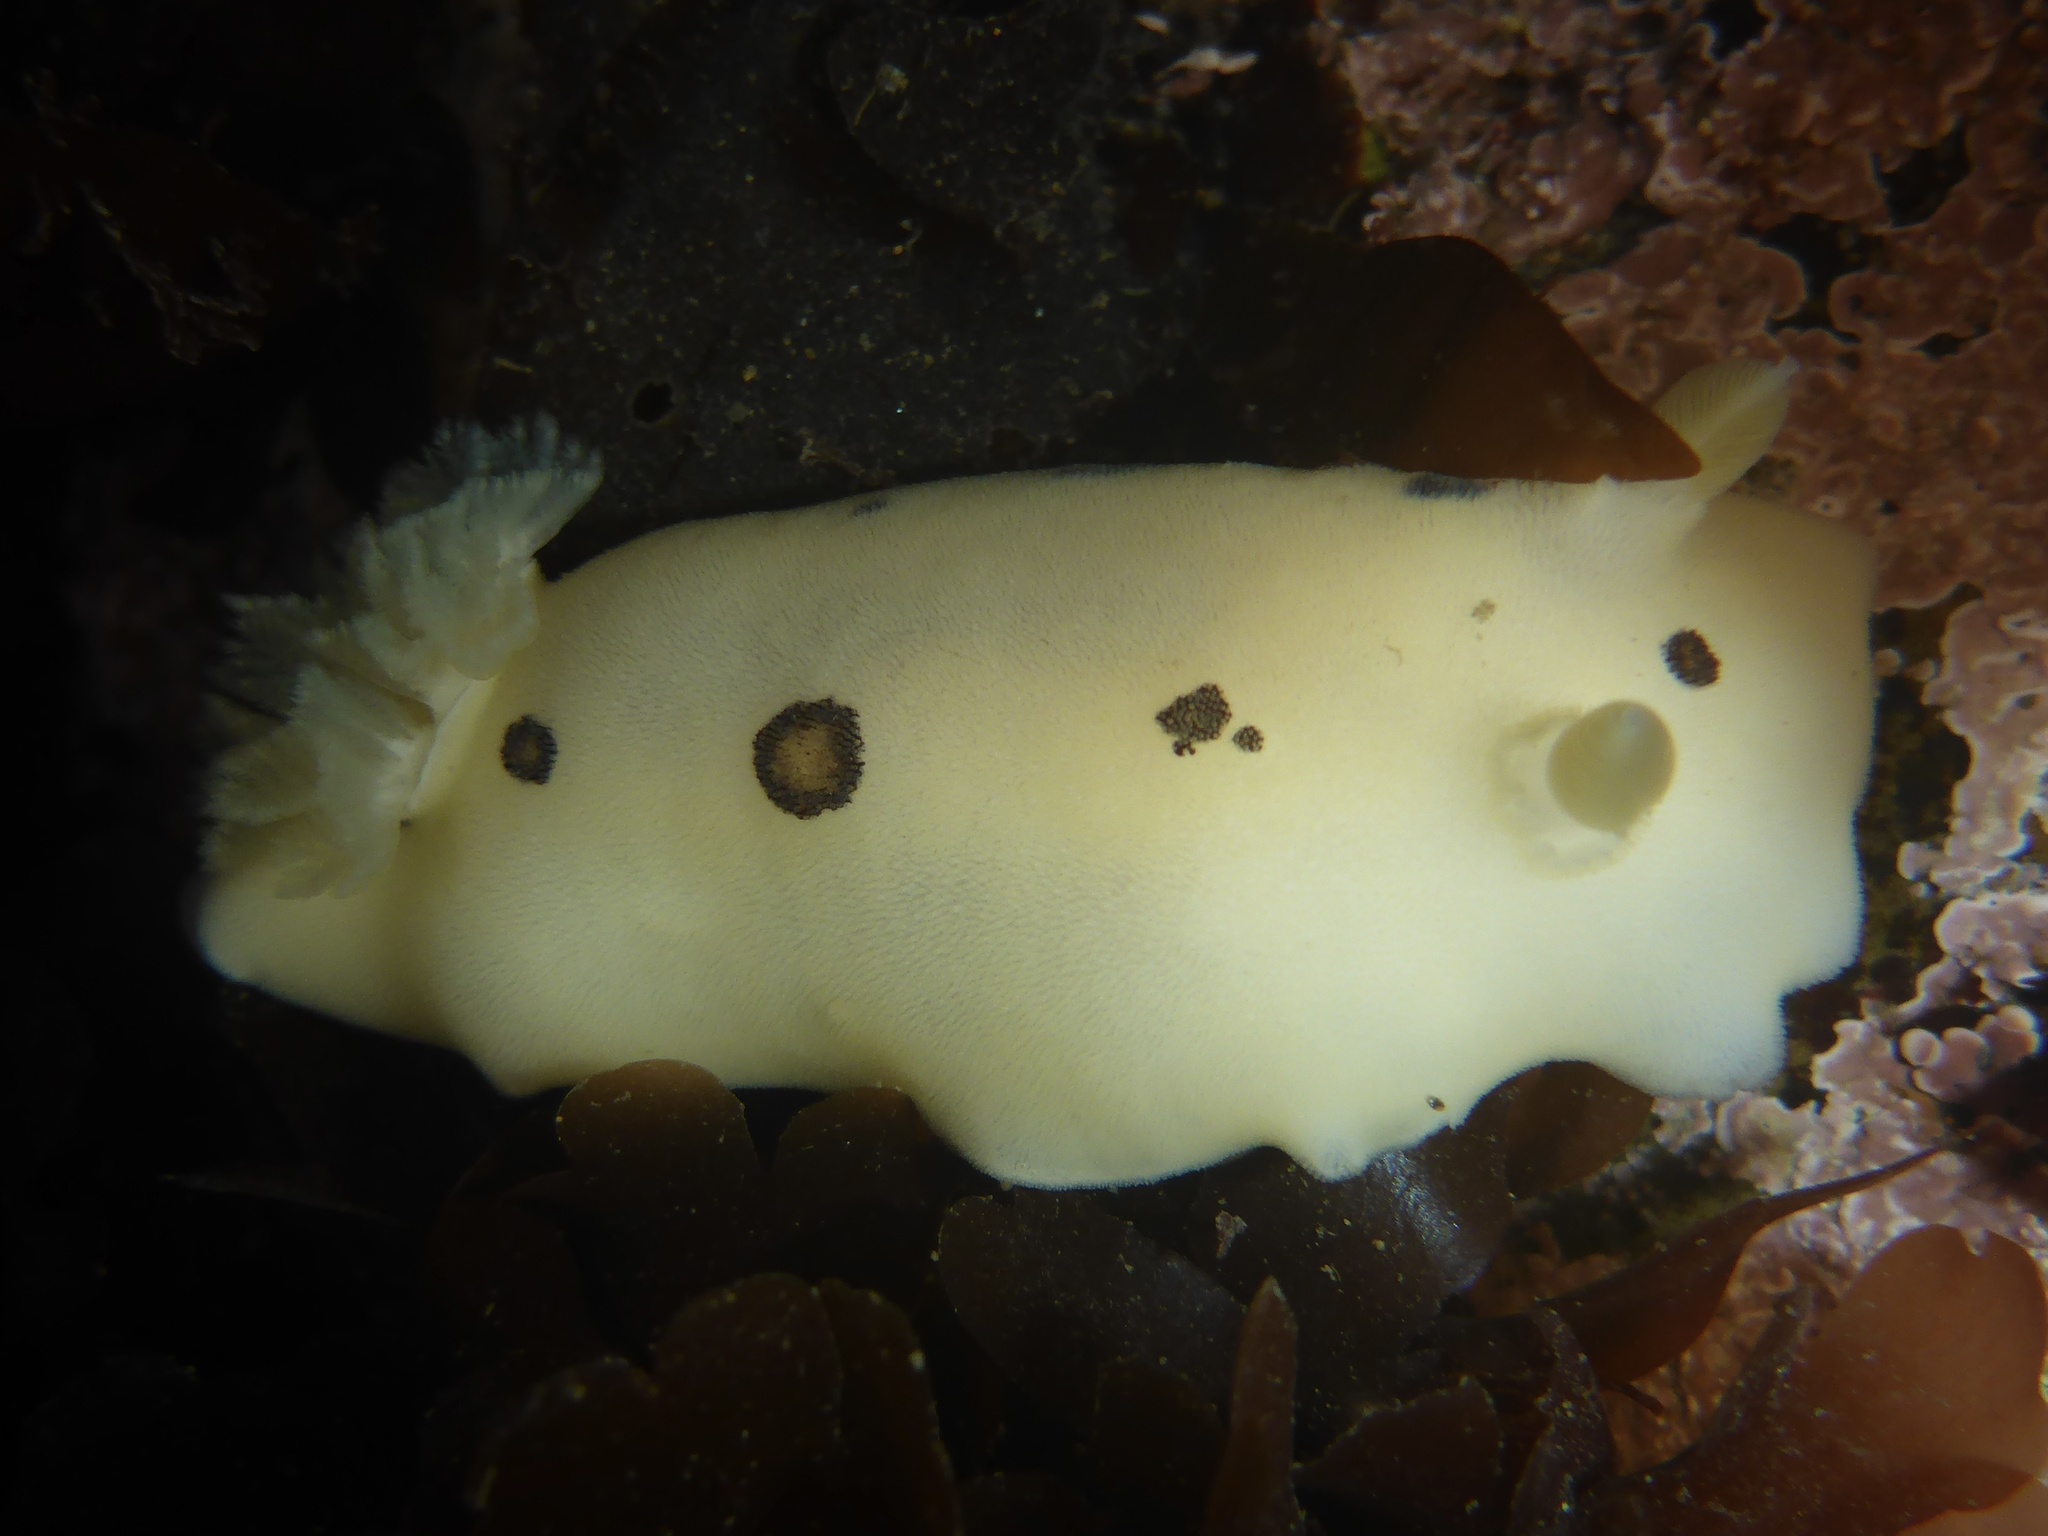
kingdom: Animalia
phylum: Mollusca
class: Gastropoda
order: Nudibranchia
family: Discodorididae
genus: Diaulula
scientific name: Diaulula sandiegensis
